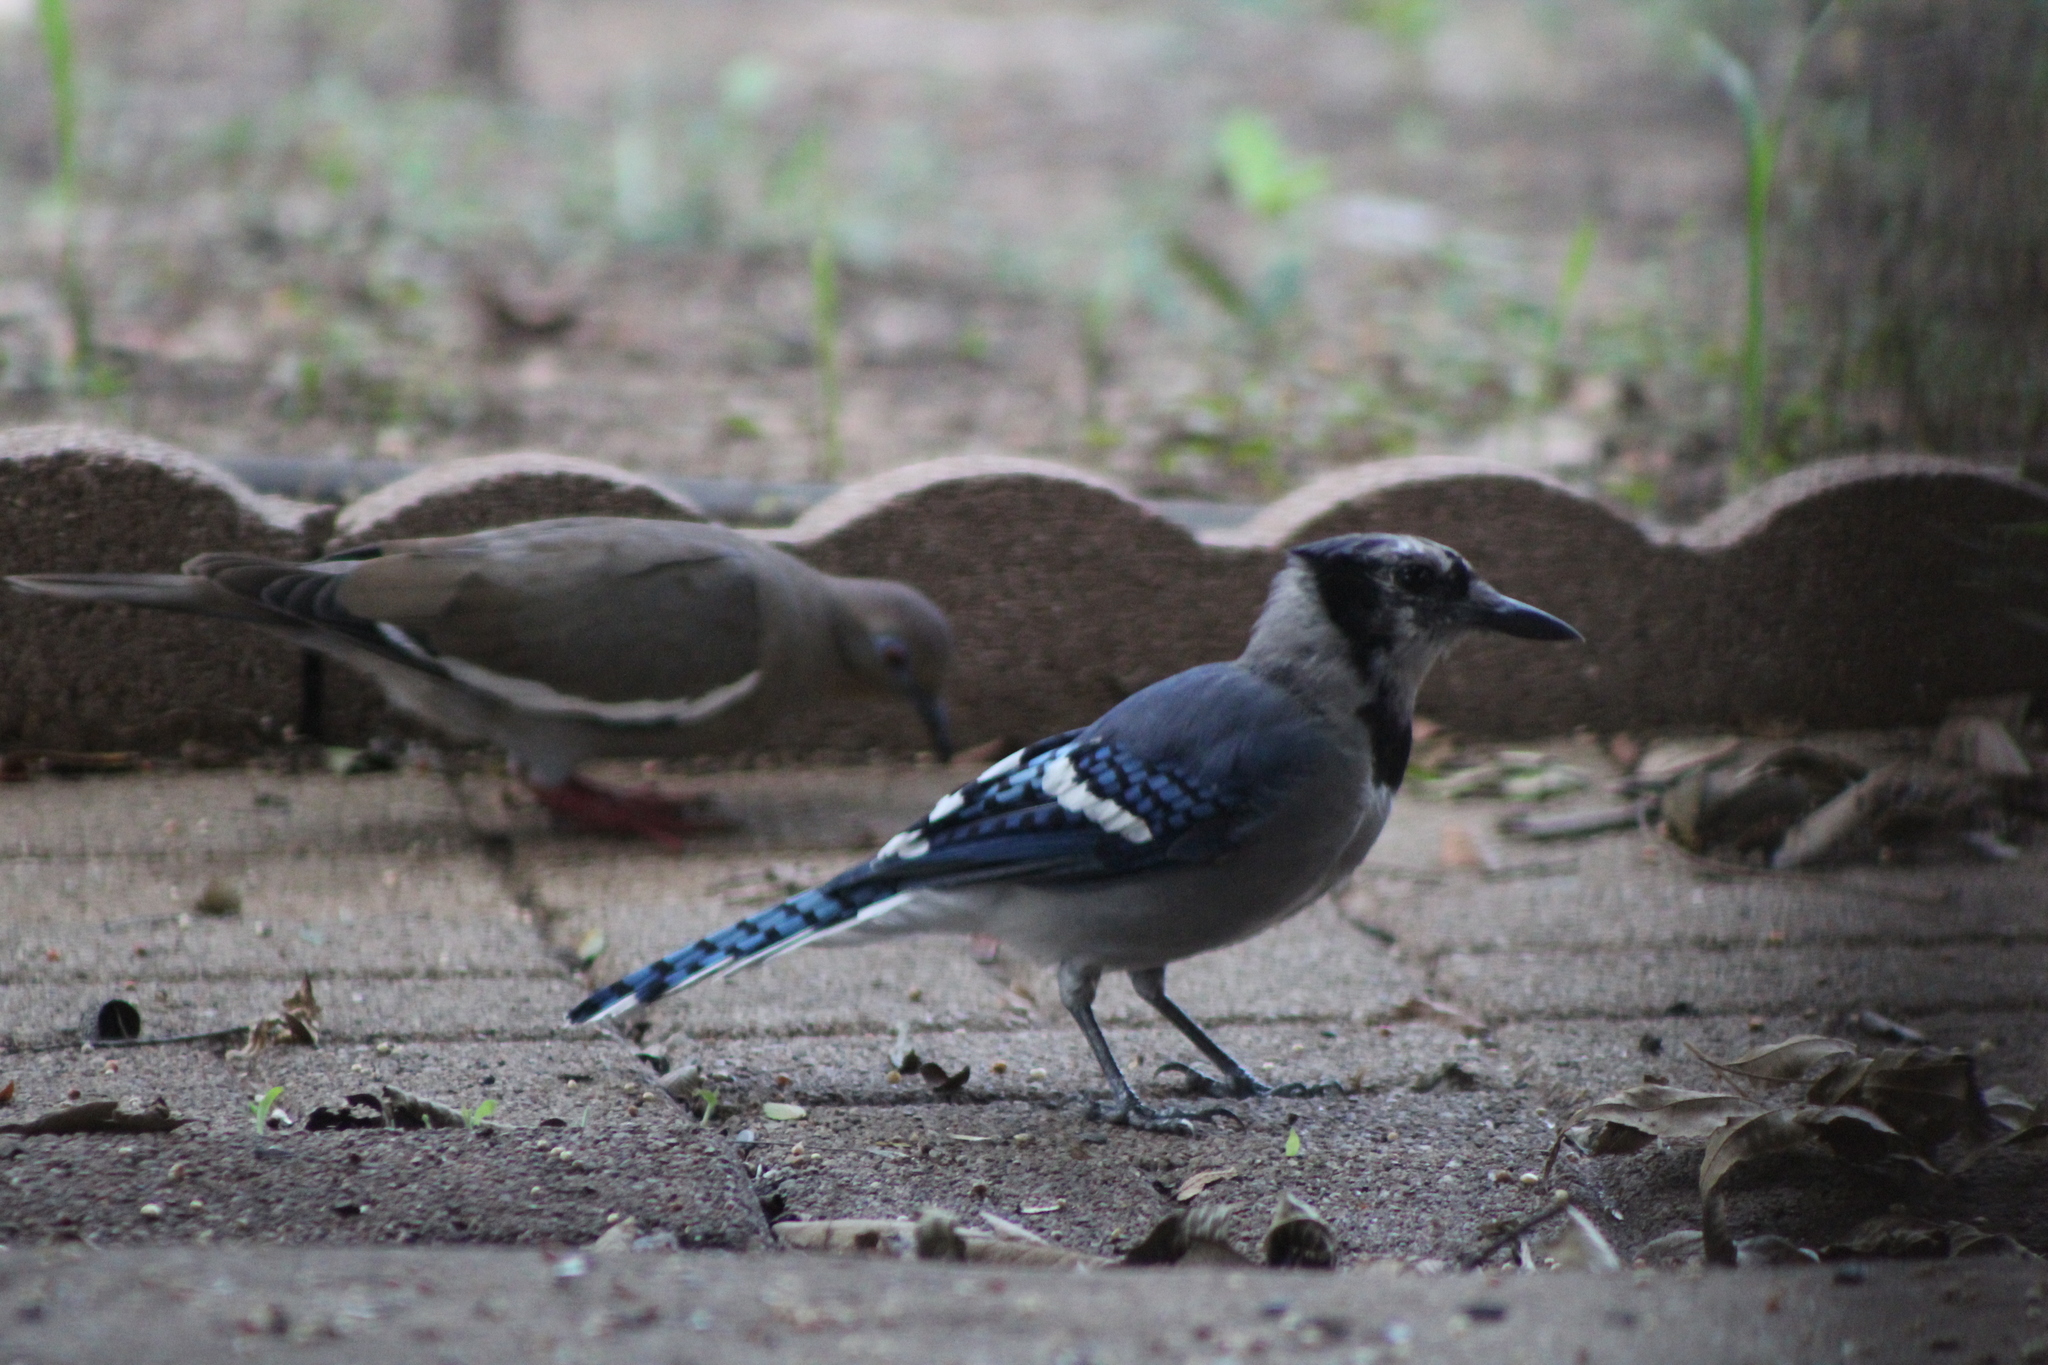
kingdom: Animalia
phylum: Chordata
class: Aves
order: Passeriformes
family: Corvidae
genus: Cyanocitta
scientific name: Cyanocitta cristata
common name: Blue jay
